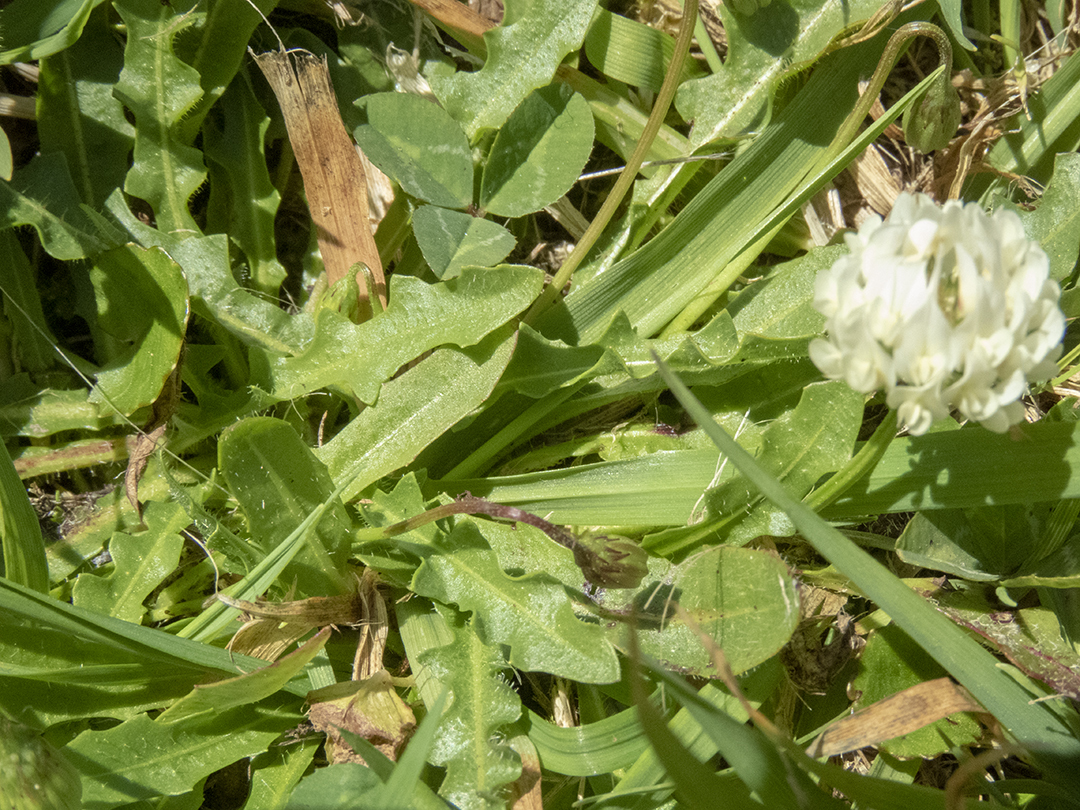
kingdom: Plantae
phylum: Tracheophyta
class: Magnoliopsida
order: Fabales
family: Fabaceae
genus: Trifolium
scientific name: Trifolium repens
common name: White clover
